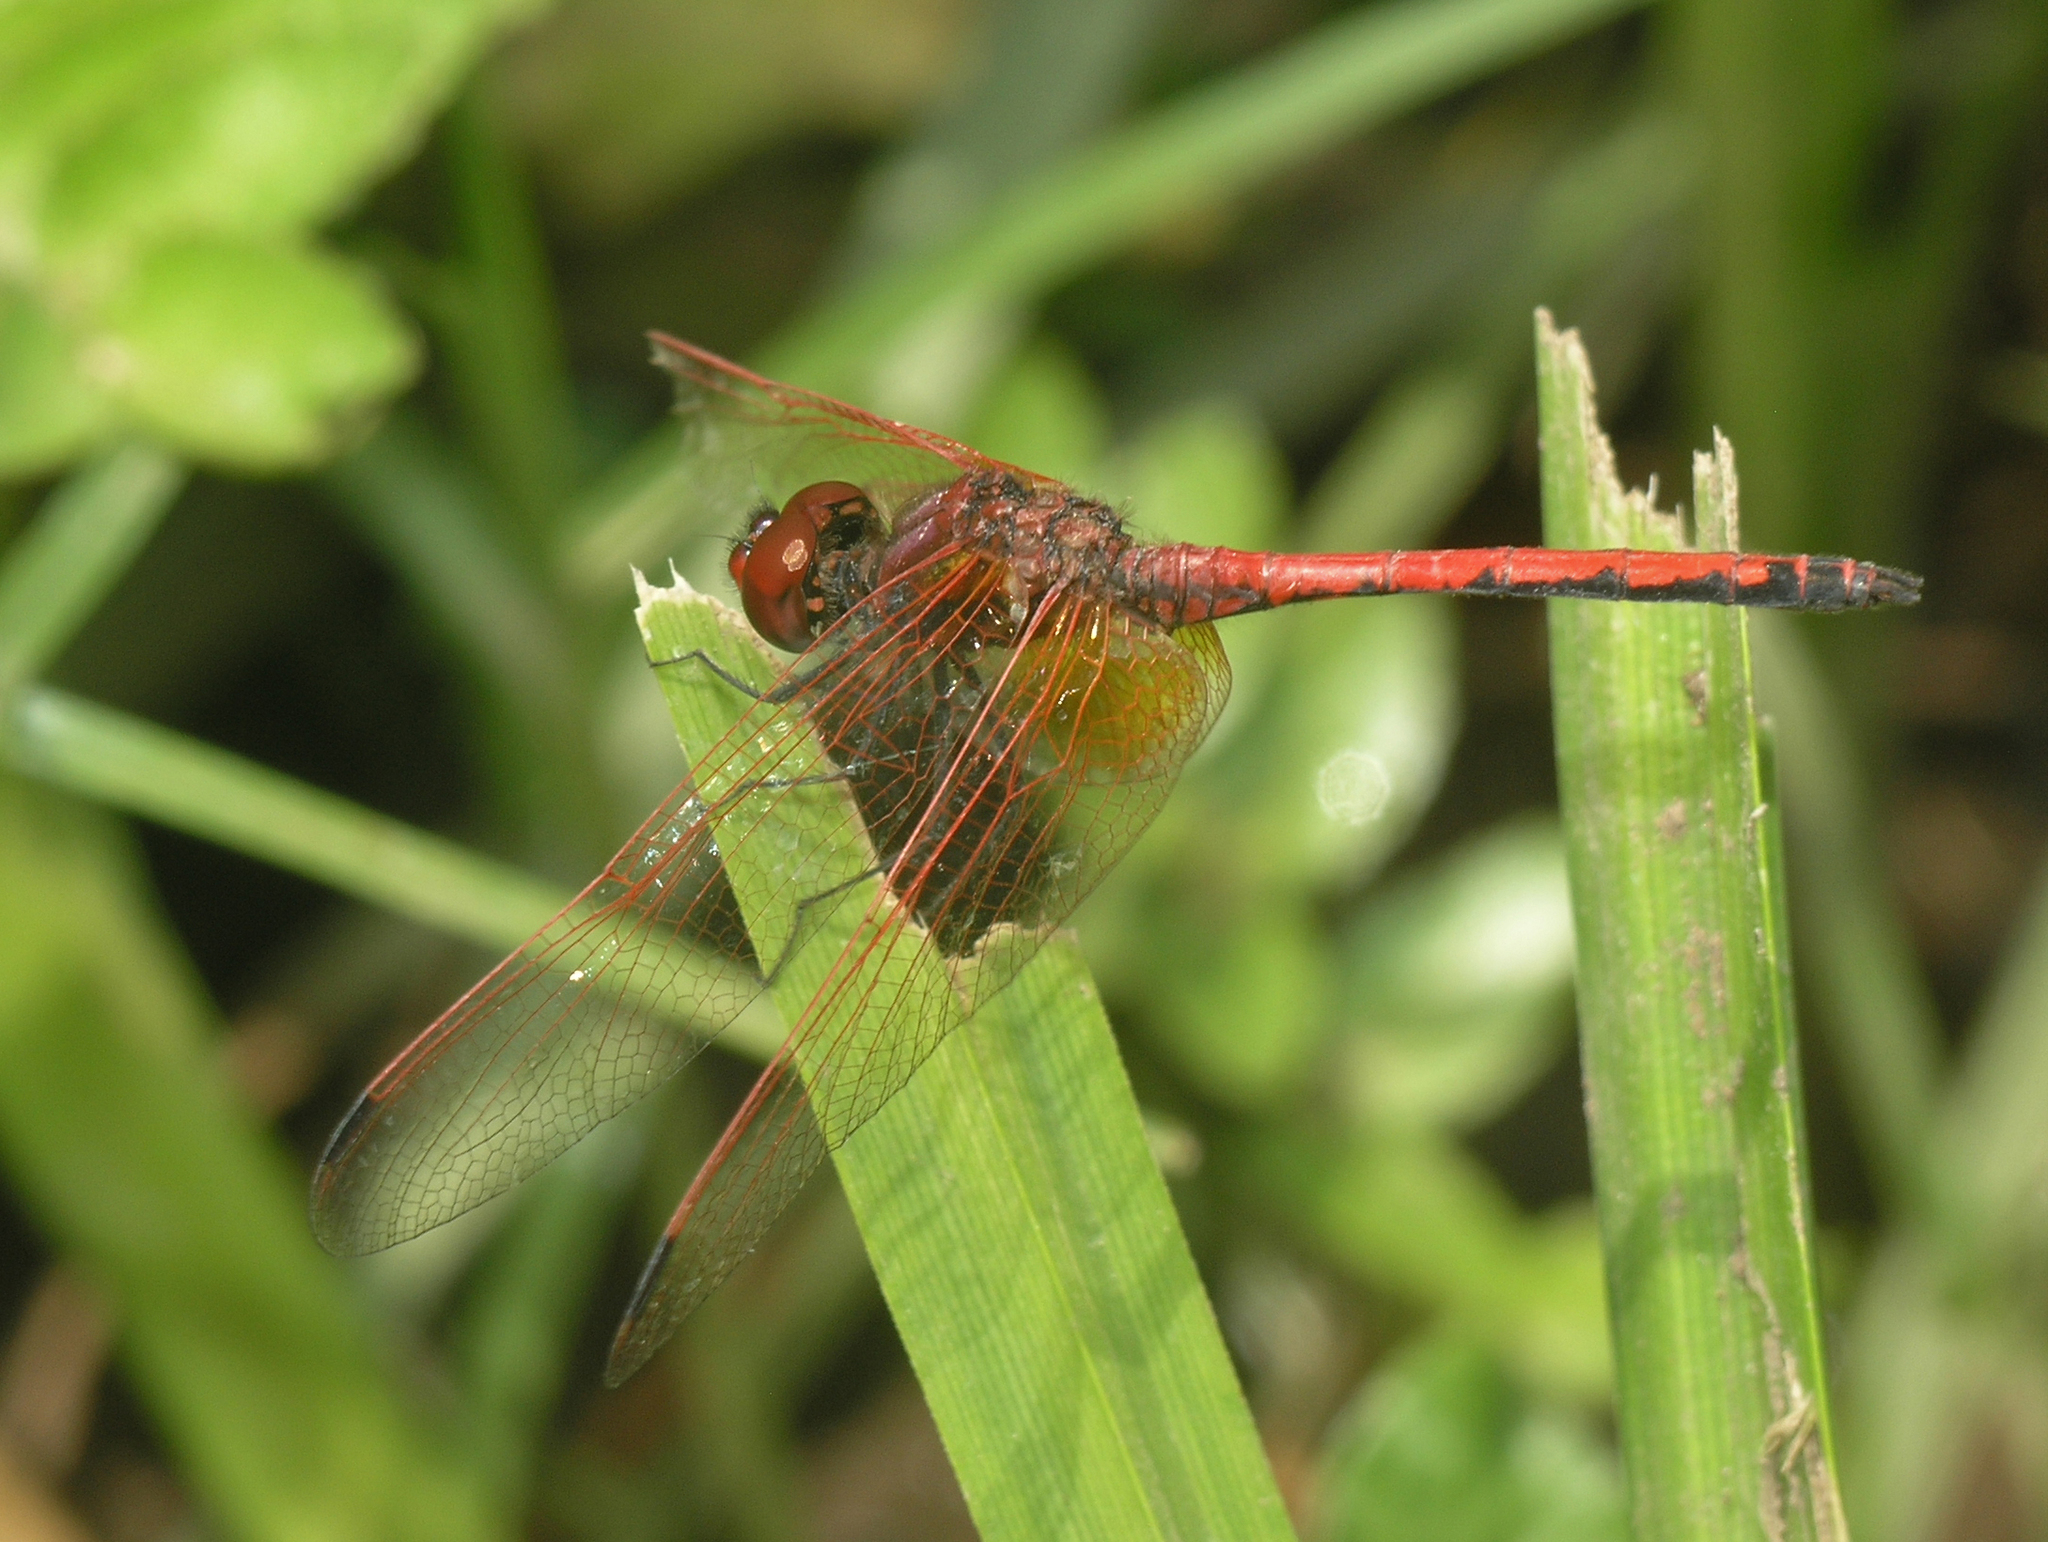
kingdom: Animalia
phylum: Arthropoda
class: Insecta
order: Odonata
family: Libellulidae
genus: Trithemis
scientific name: Trithemis arteriosa
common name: Red-veined dropwing
